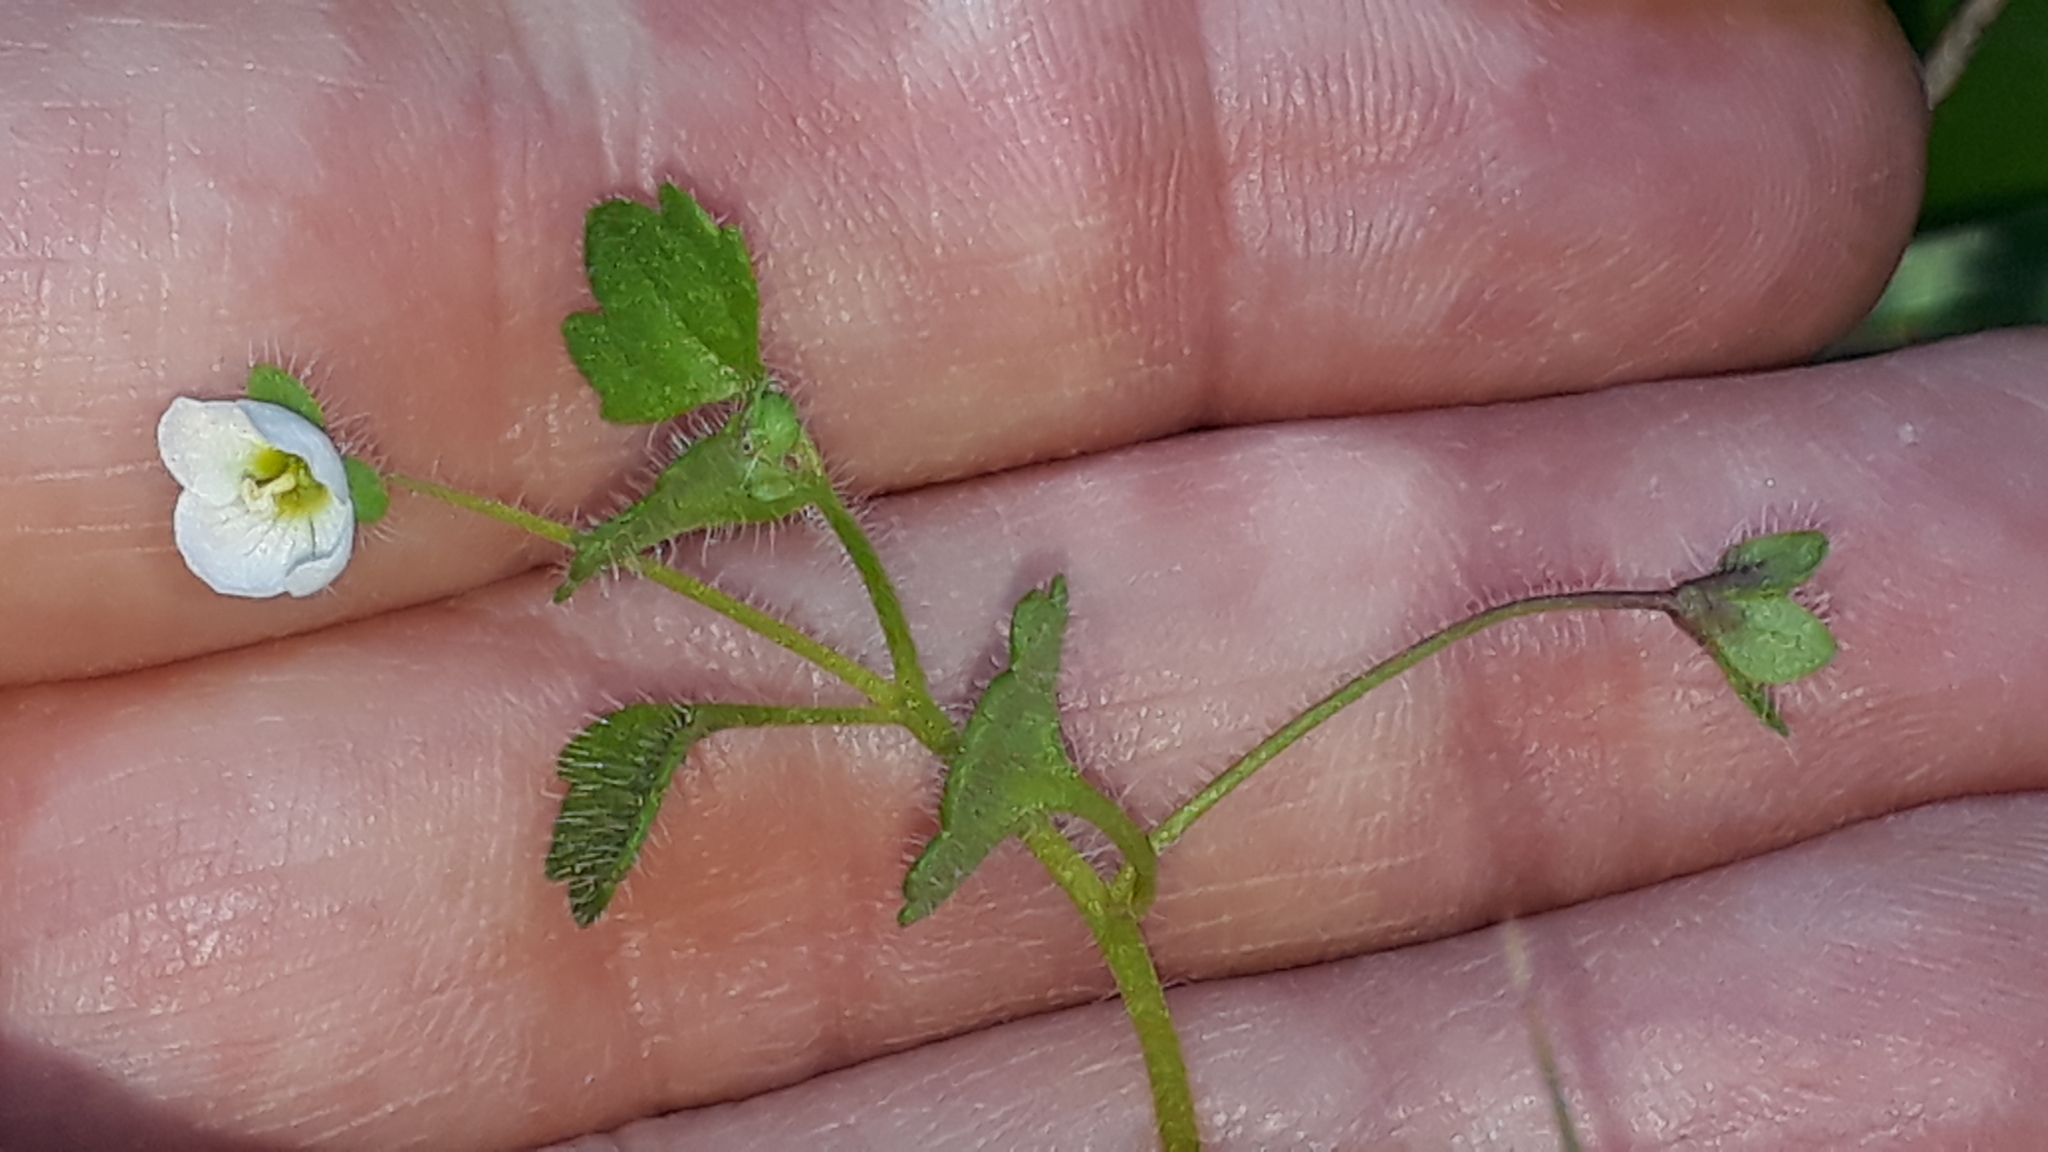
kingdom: Plantae
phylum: Tracheophyta
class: Magnoliopsida
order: Lamiales
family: Plantaginaceae
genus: Veronica
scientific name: Veronica cymbalaria
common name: Pale speedwell
